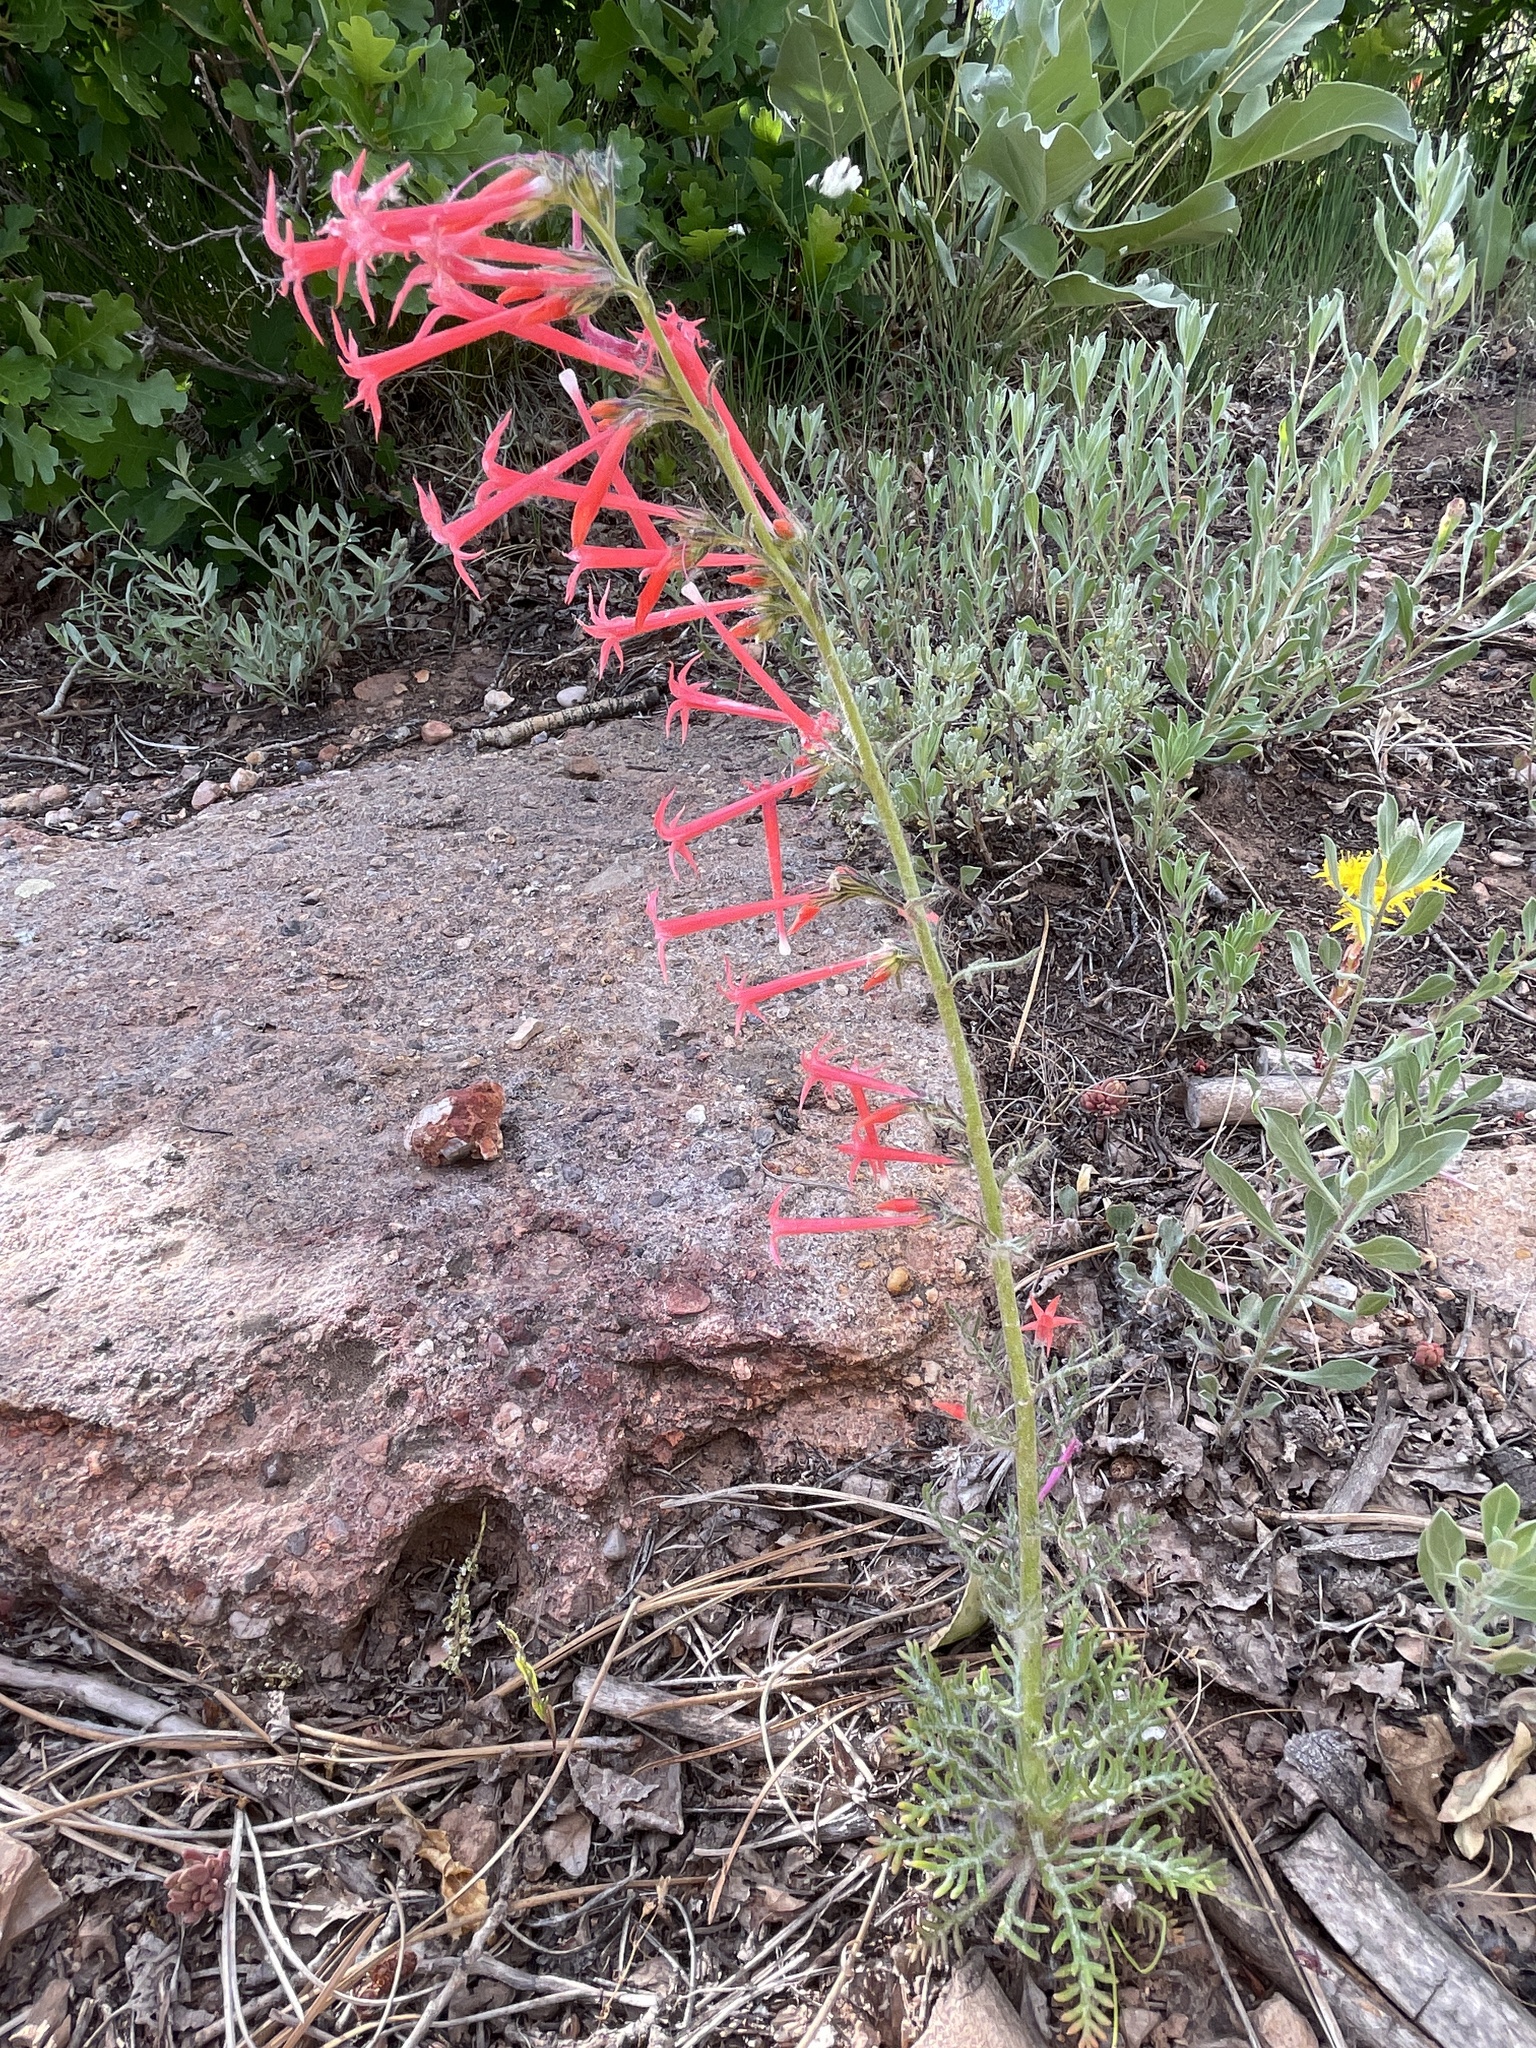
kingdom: Plantae
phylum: Tracheophyta
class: Magnoliopsida
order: Ericales
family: Polemoniaceae
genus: Ipomopsis
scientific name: Ipomopsis tenuituba
